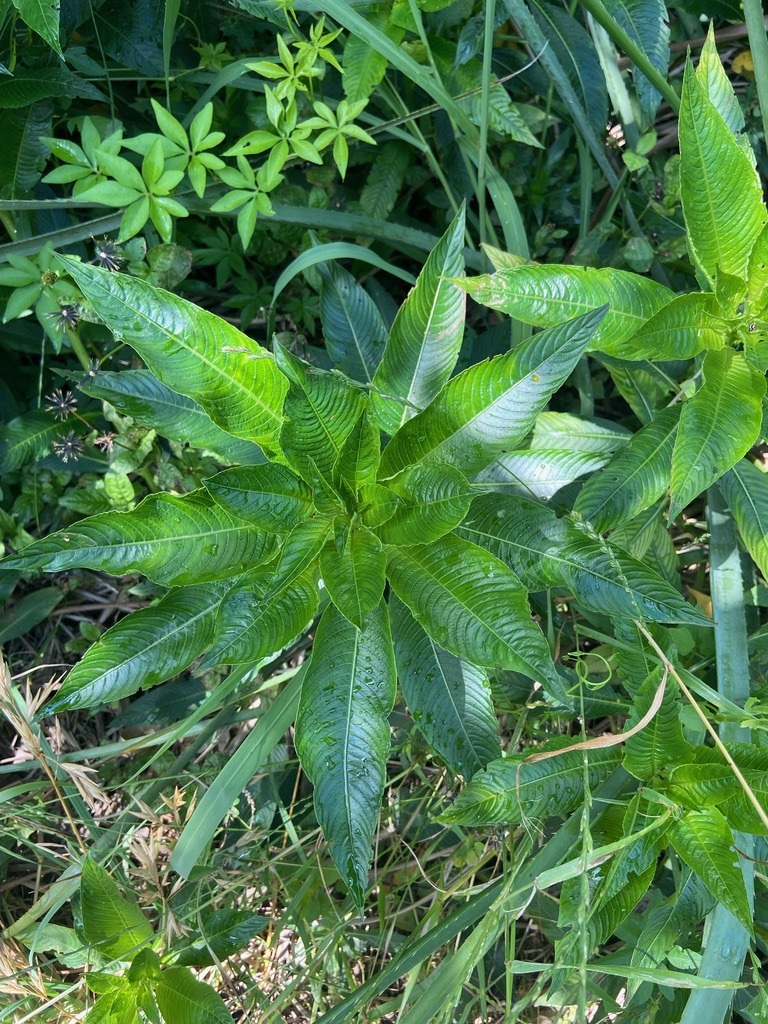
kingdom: Plantae
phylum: Tracheophyta
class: Magnoliopsida
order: Myrtales
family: Onagraceae
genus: Ludwigia
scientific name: Ludwigia elegans
